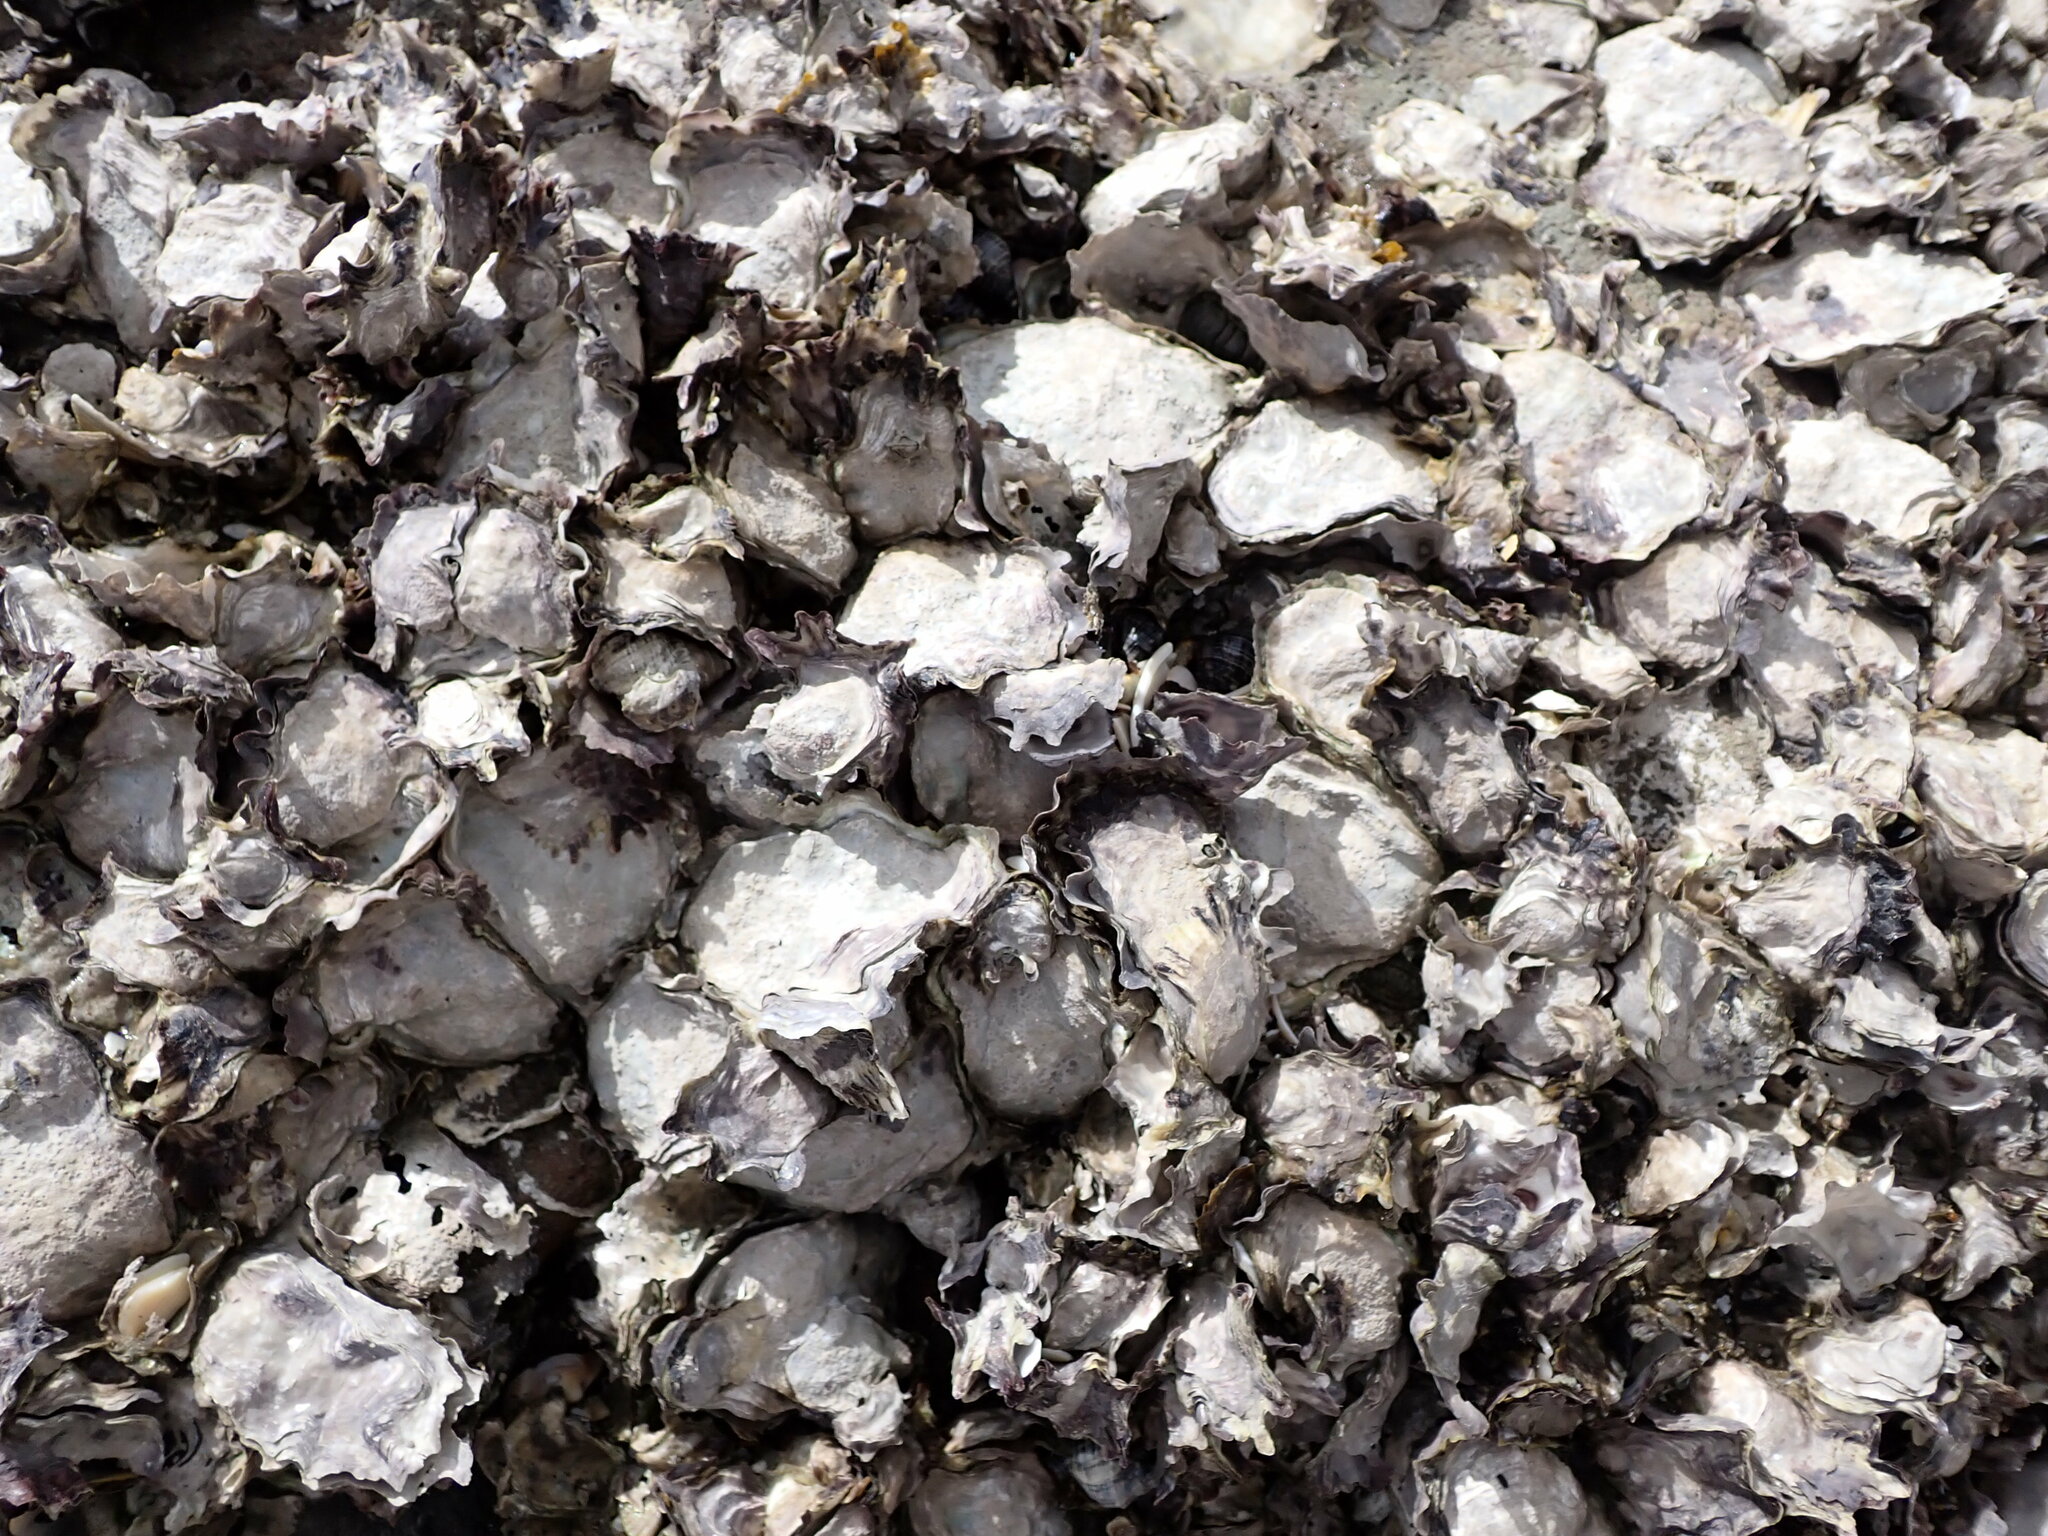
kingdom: Animalia
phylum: Mollusca
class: Bivalvia
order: Ostreida
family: Ostreidae
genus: Saccostrea
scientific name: Saccostrea glomerata
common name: Sydney cupped oyster
